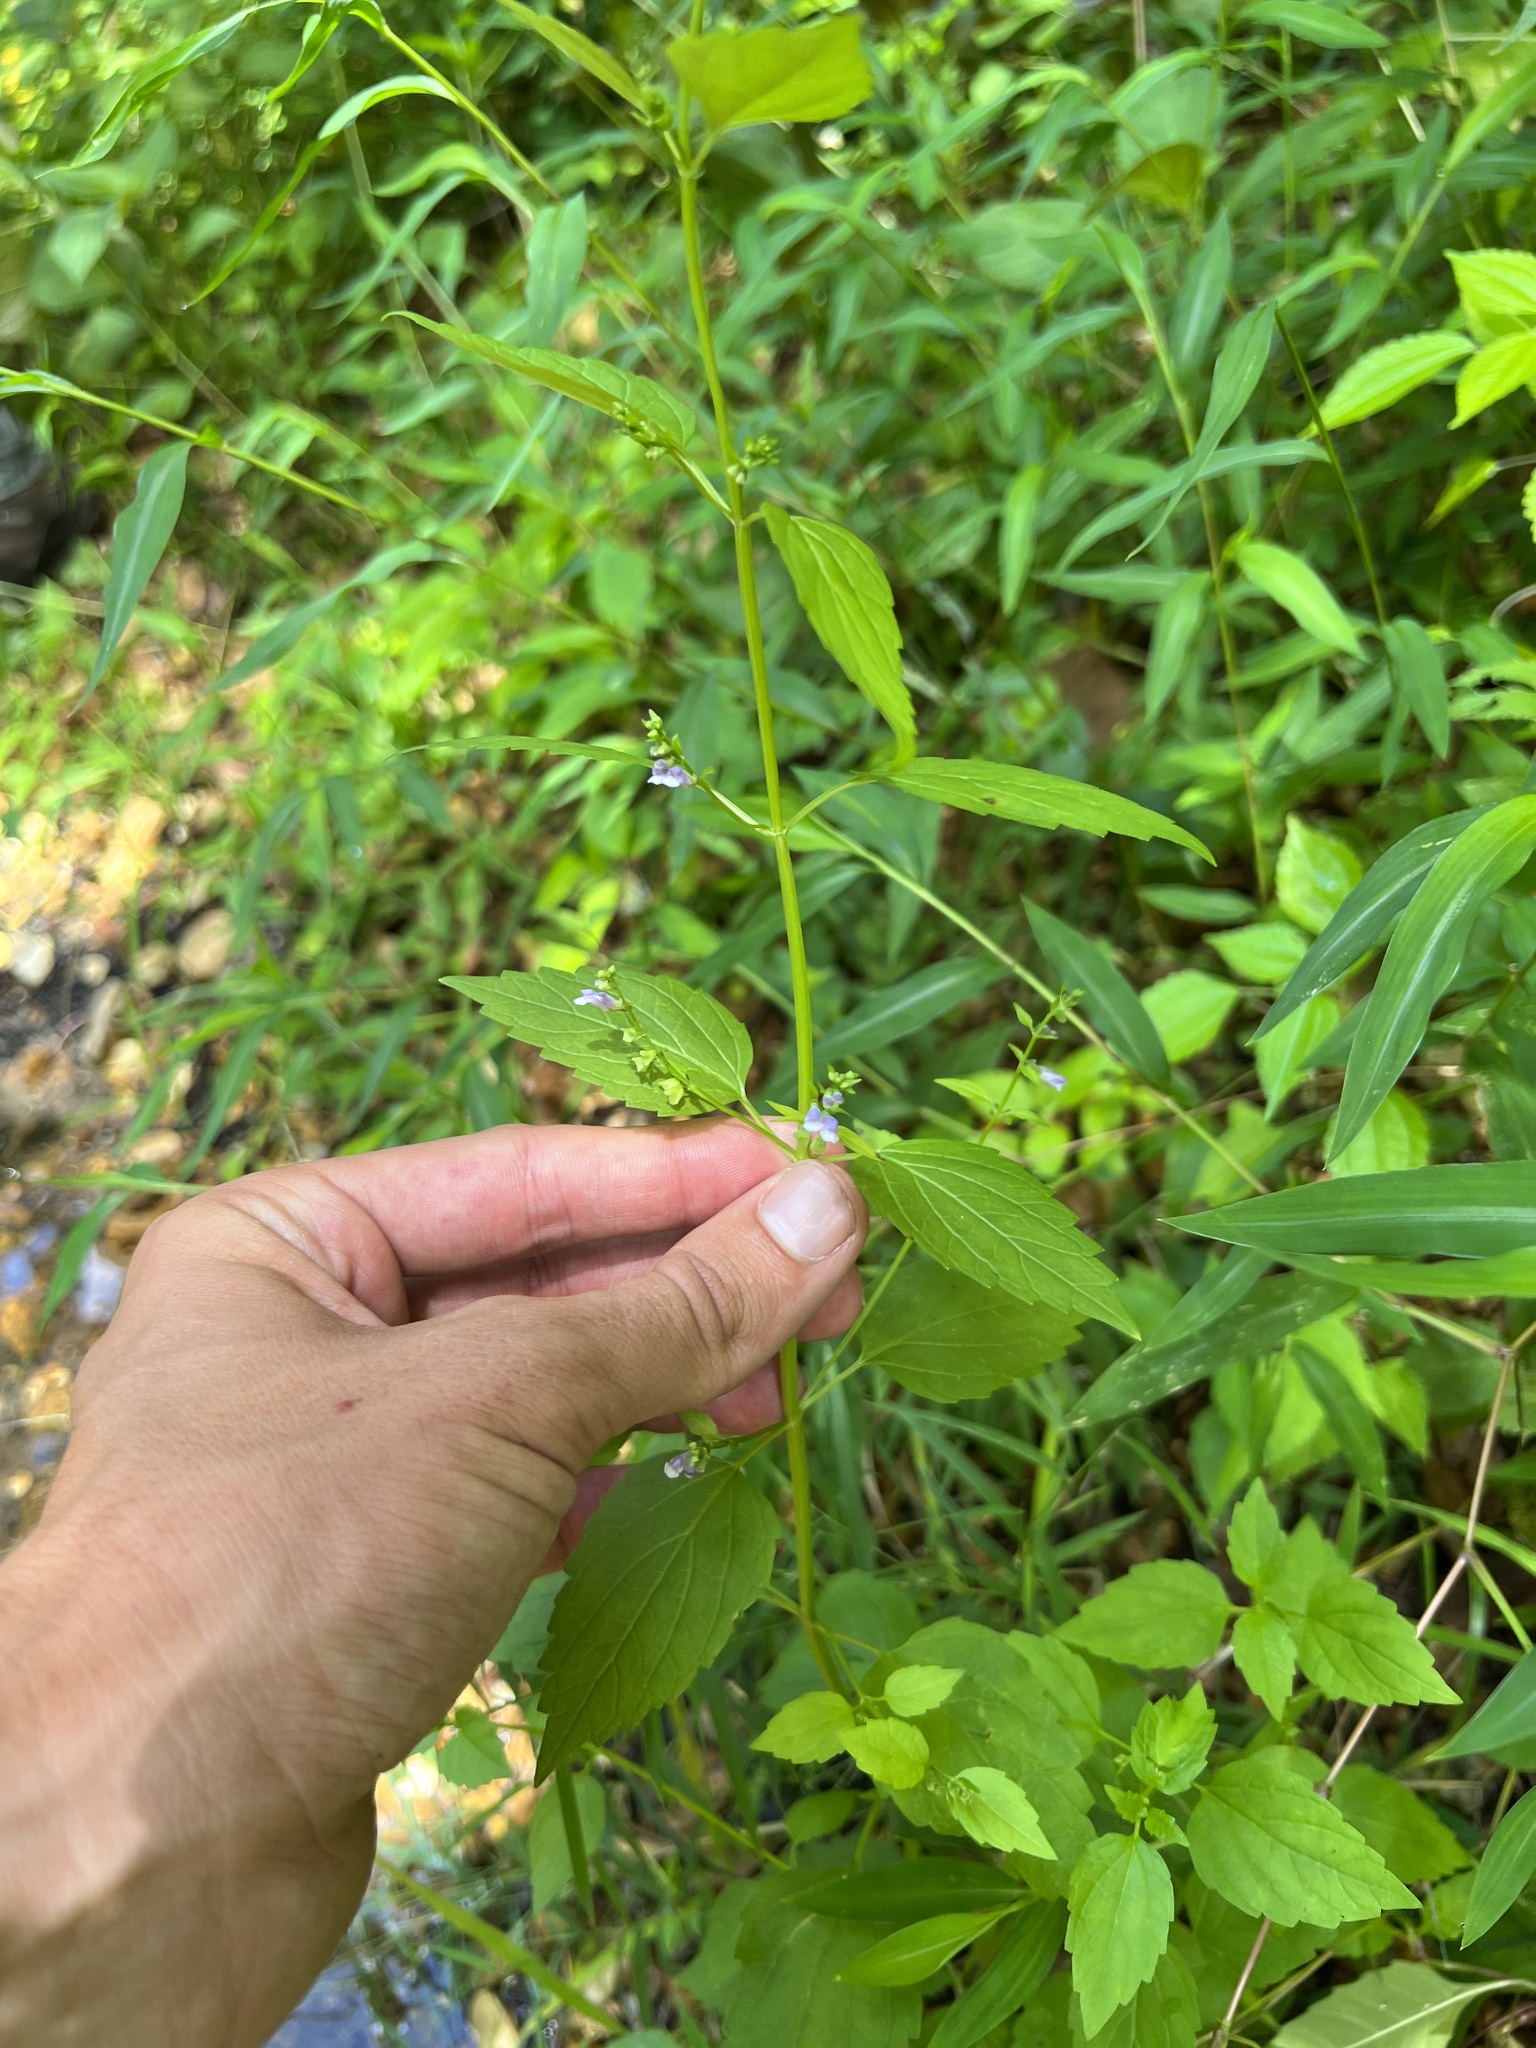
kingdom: Plantae
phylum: Tracheophyta
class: Magnoliopsida
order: Lamiales
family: Lamiaceae
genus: Scutellaria
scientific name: Scutellaria lateriflora
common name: Blue skullcap
